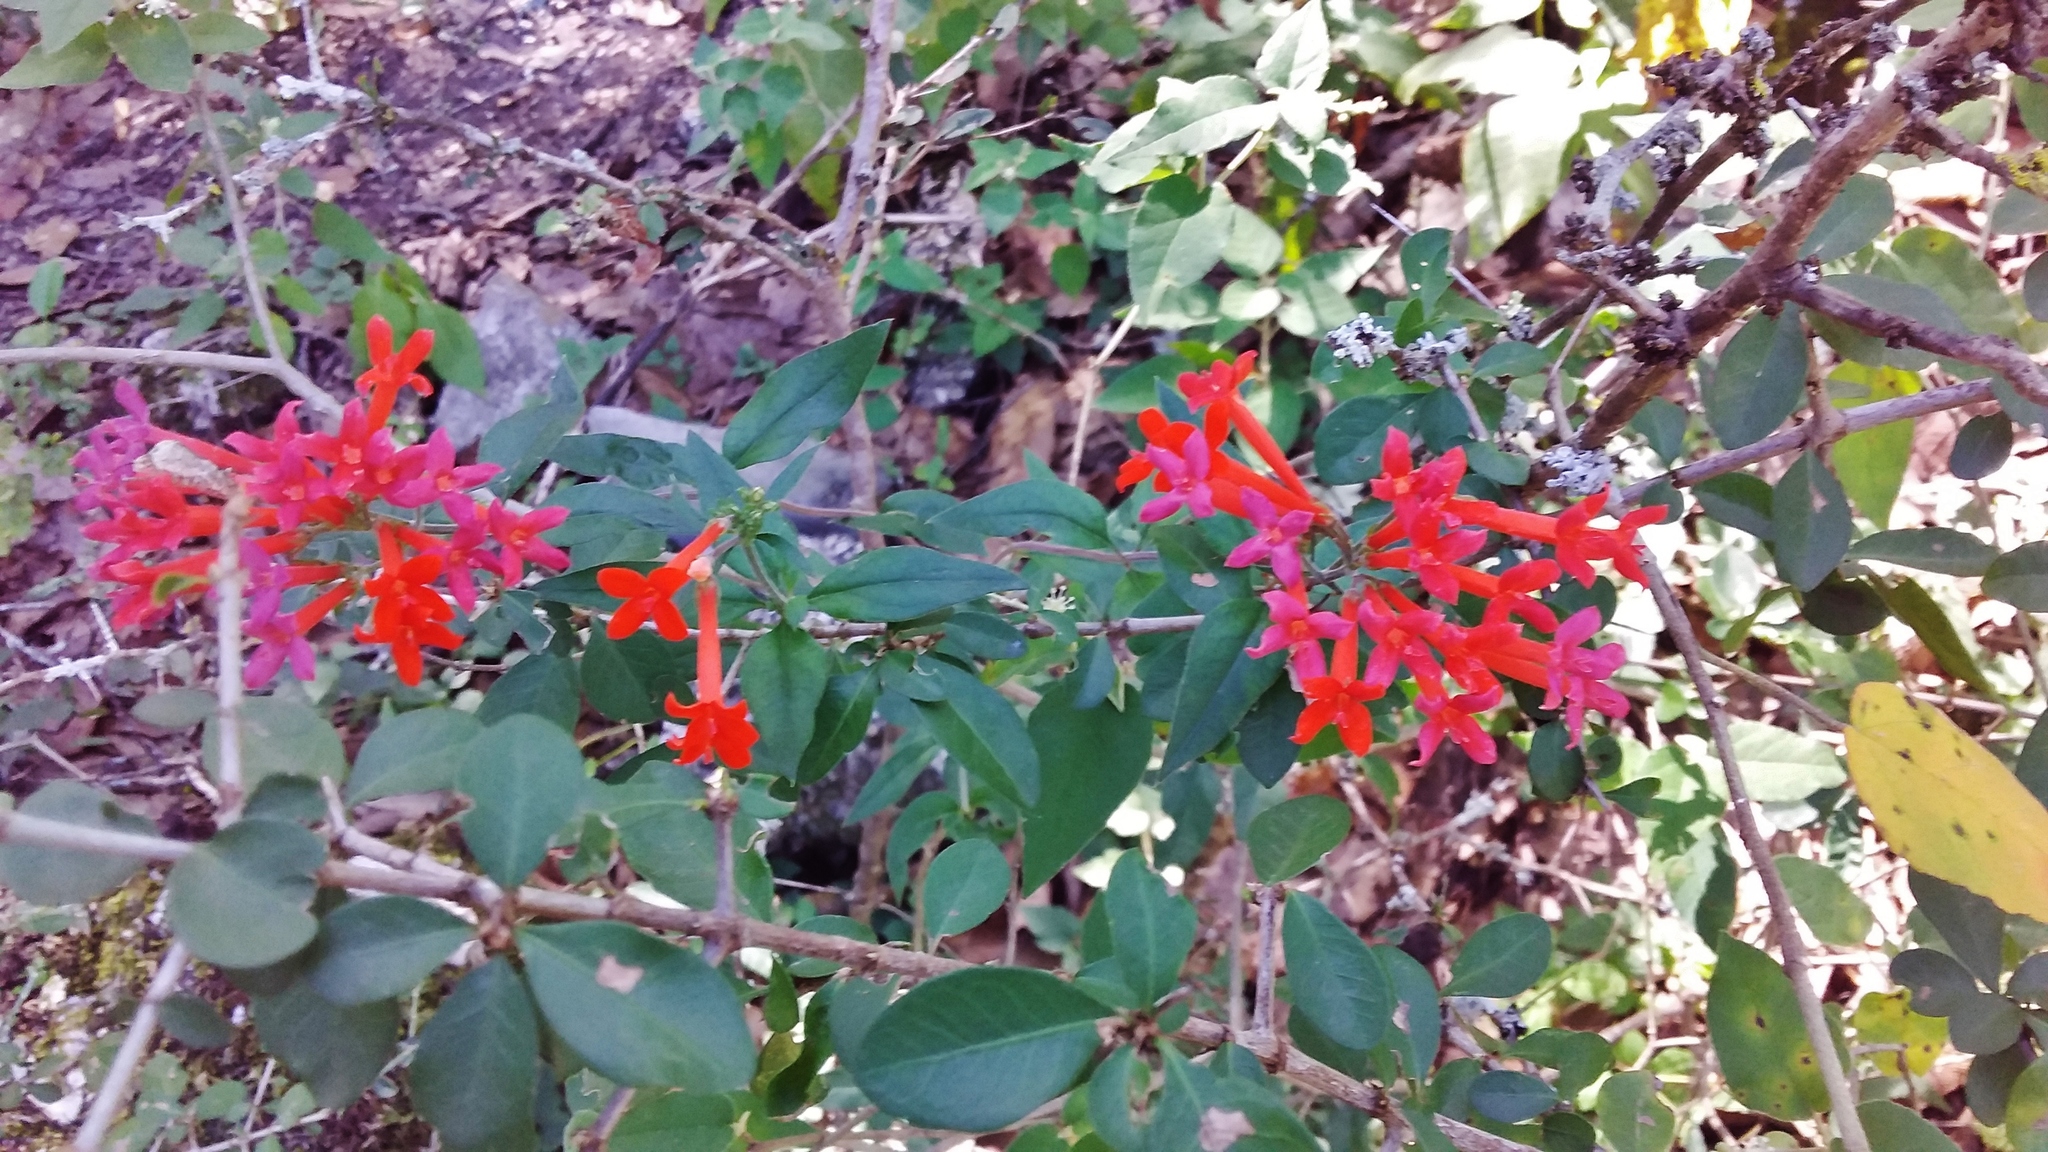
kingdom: Plantae
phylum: Tracheophyta
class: Magnoliopsida
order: Gentianales
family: Rubiaceae
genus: Bouvardia
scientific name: Bouvardia ternifolia
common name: Scarlet bouvardia
